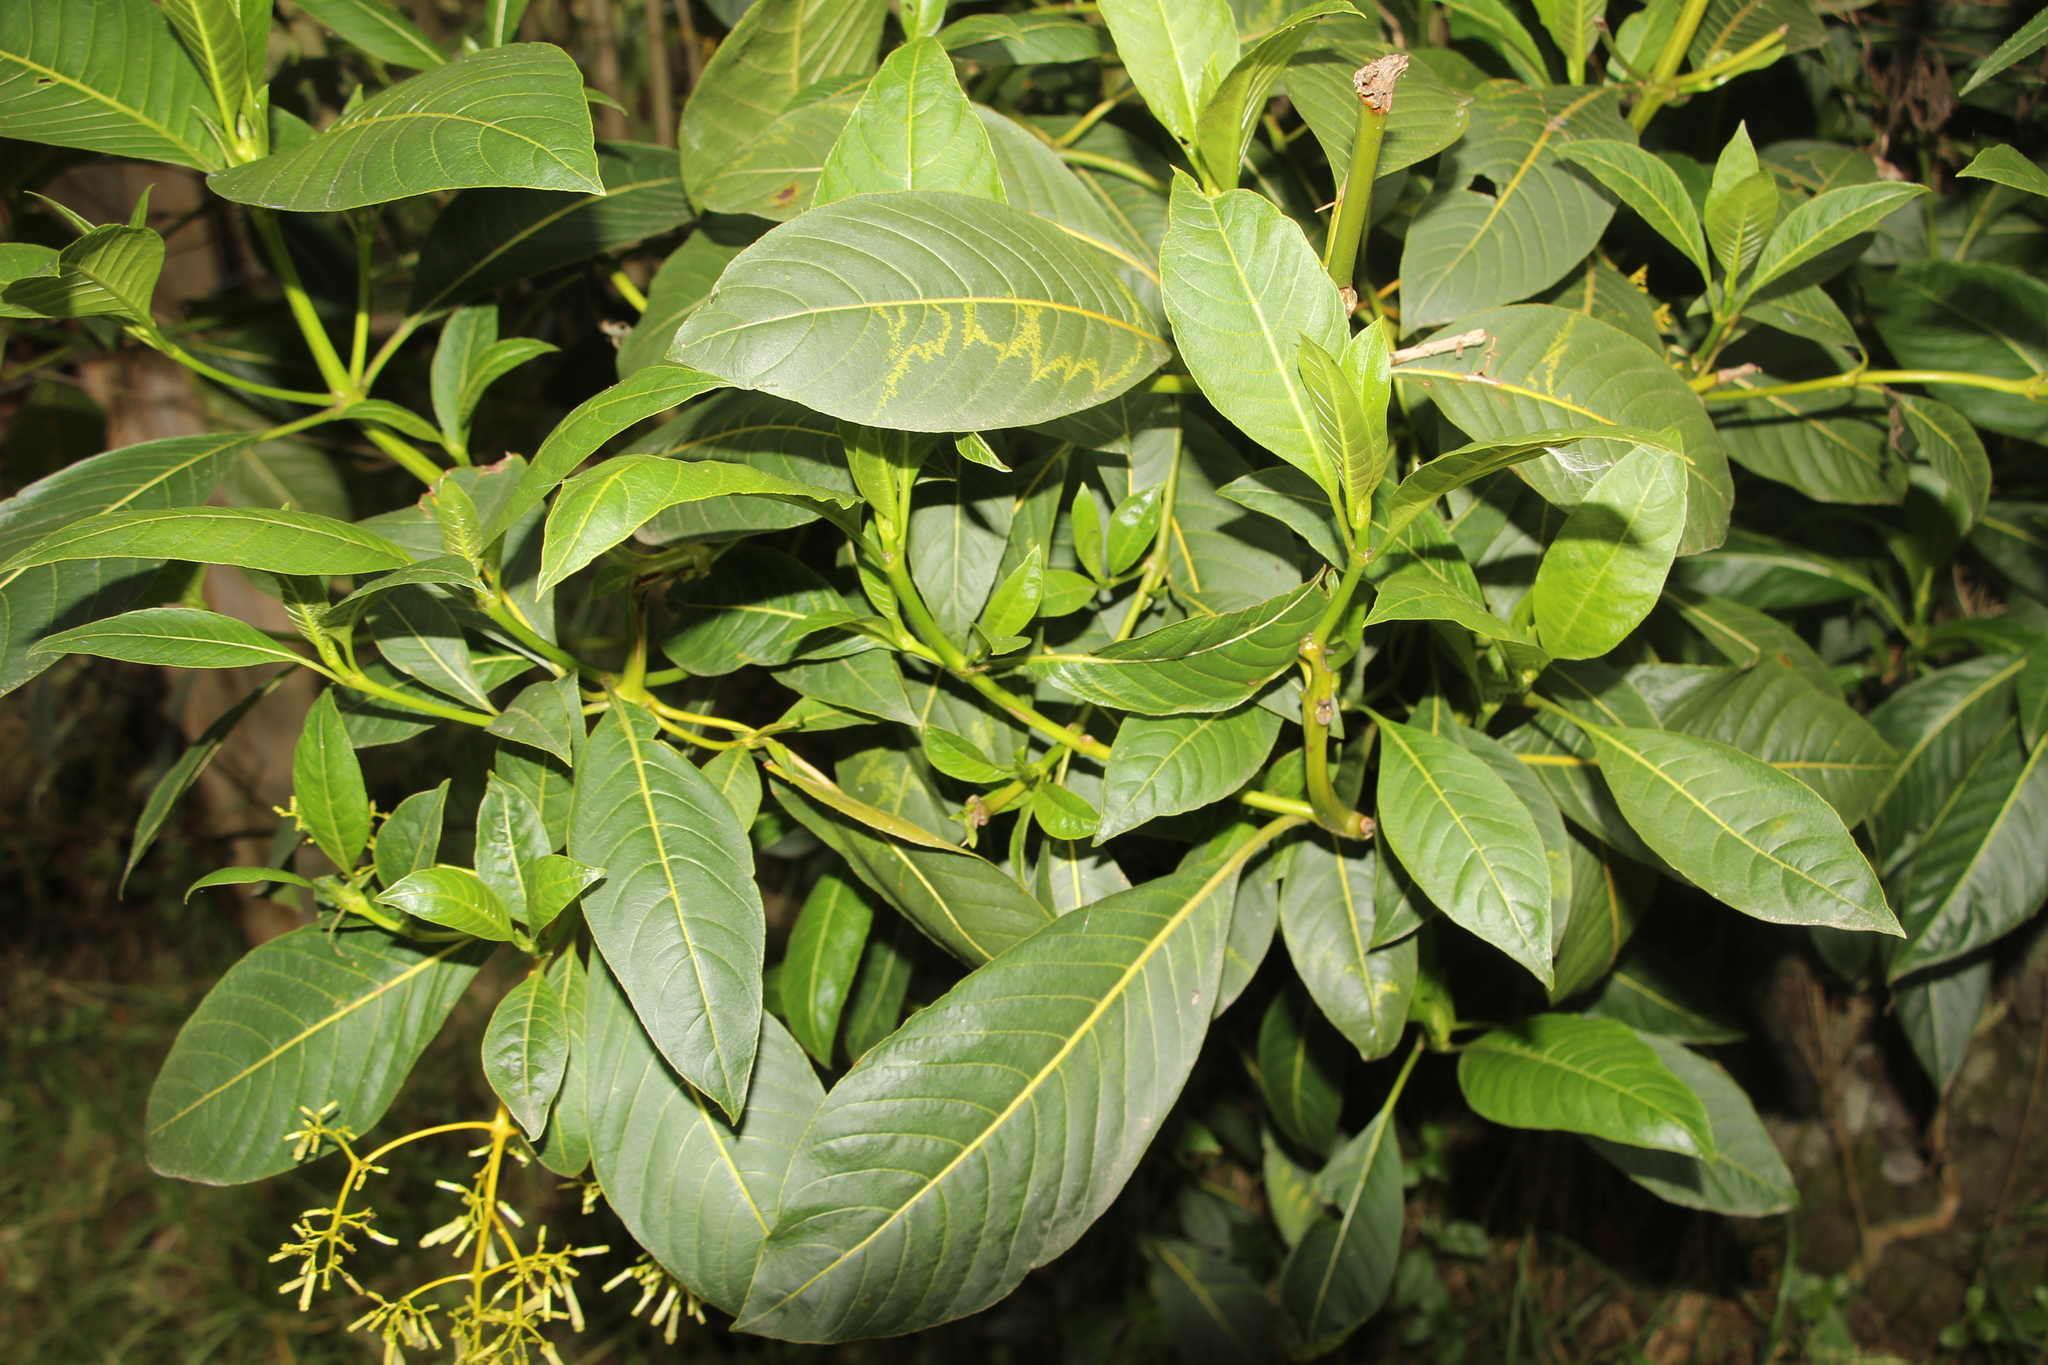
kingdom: Plantae
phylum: Tracheophyta
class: Magnoliopsida
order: Gentianales
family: Rubiaceae
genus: Palicourea
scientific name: Palicourea lineariflora
